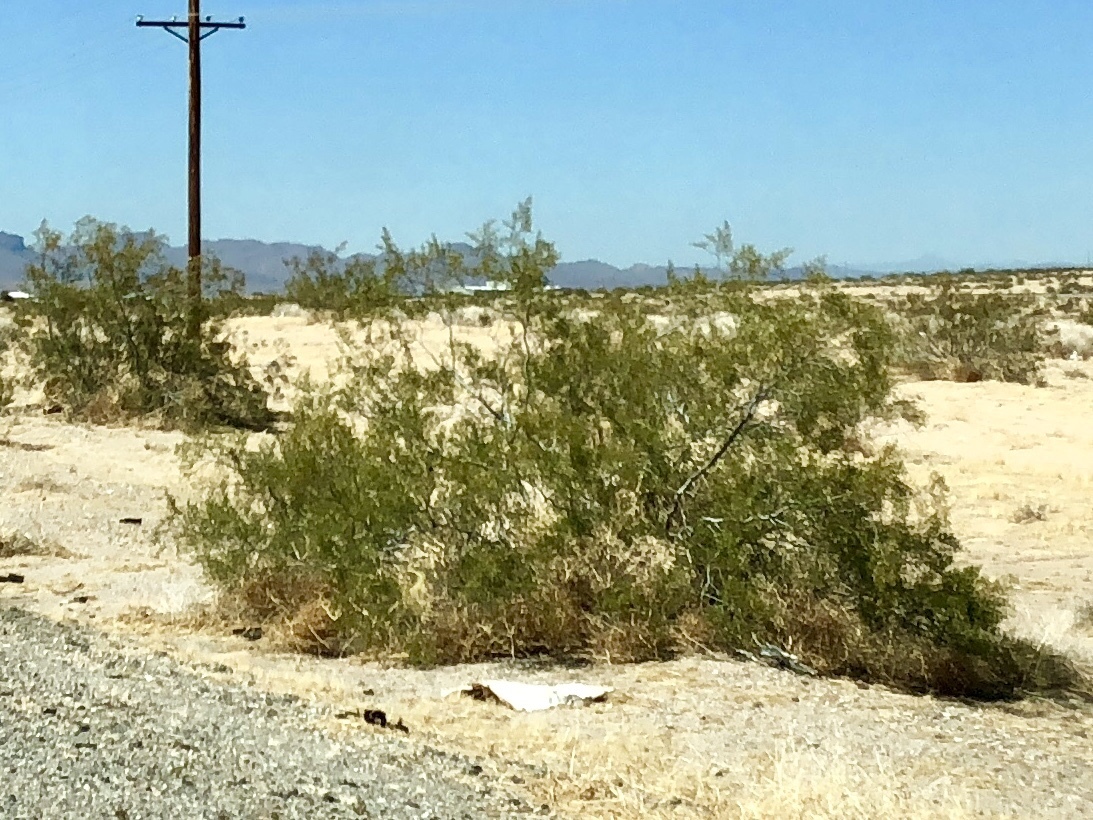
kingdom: Plantae
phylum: Tracheophyta
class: Magnoliopsida
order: Zygophyllales
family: Zygophyllaceae
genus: Larrea
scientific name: Larrea tridentata
